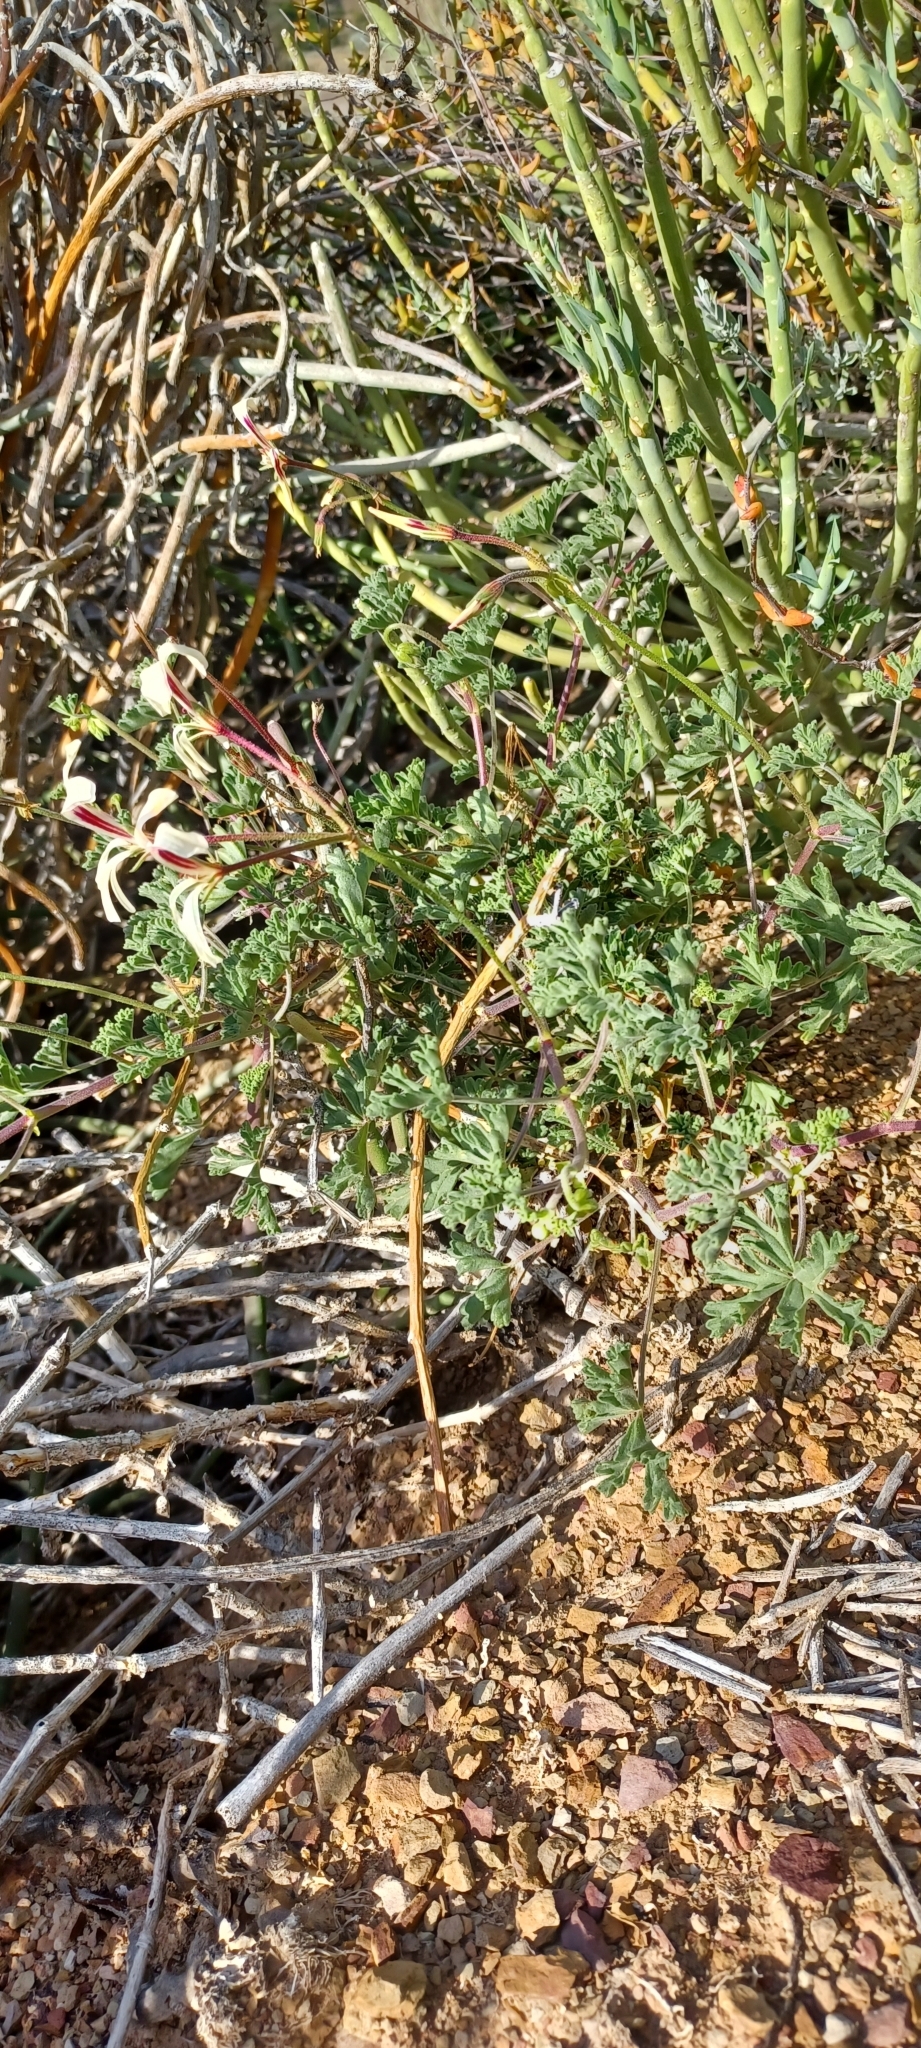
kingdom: Plantae
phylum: Tracheophyta
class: Magnoliopsida
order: Geraniales
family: Geraniaceae
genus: Pelargonium
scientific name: Pelargonium trifidum
